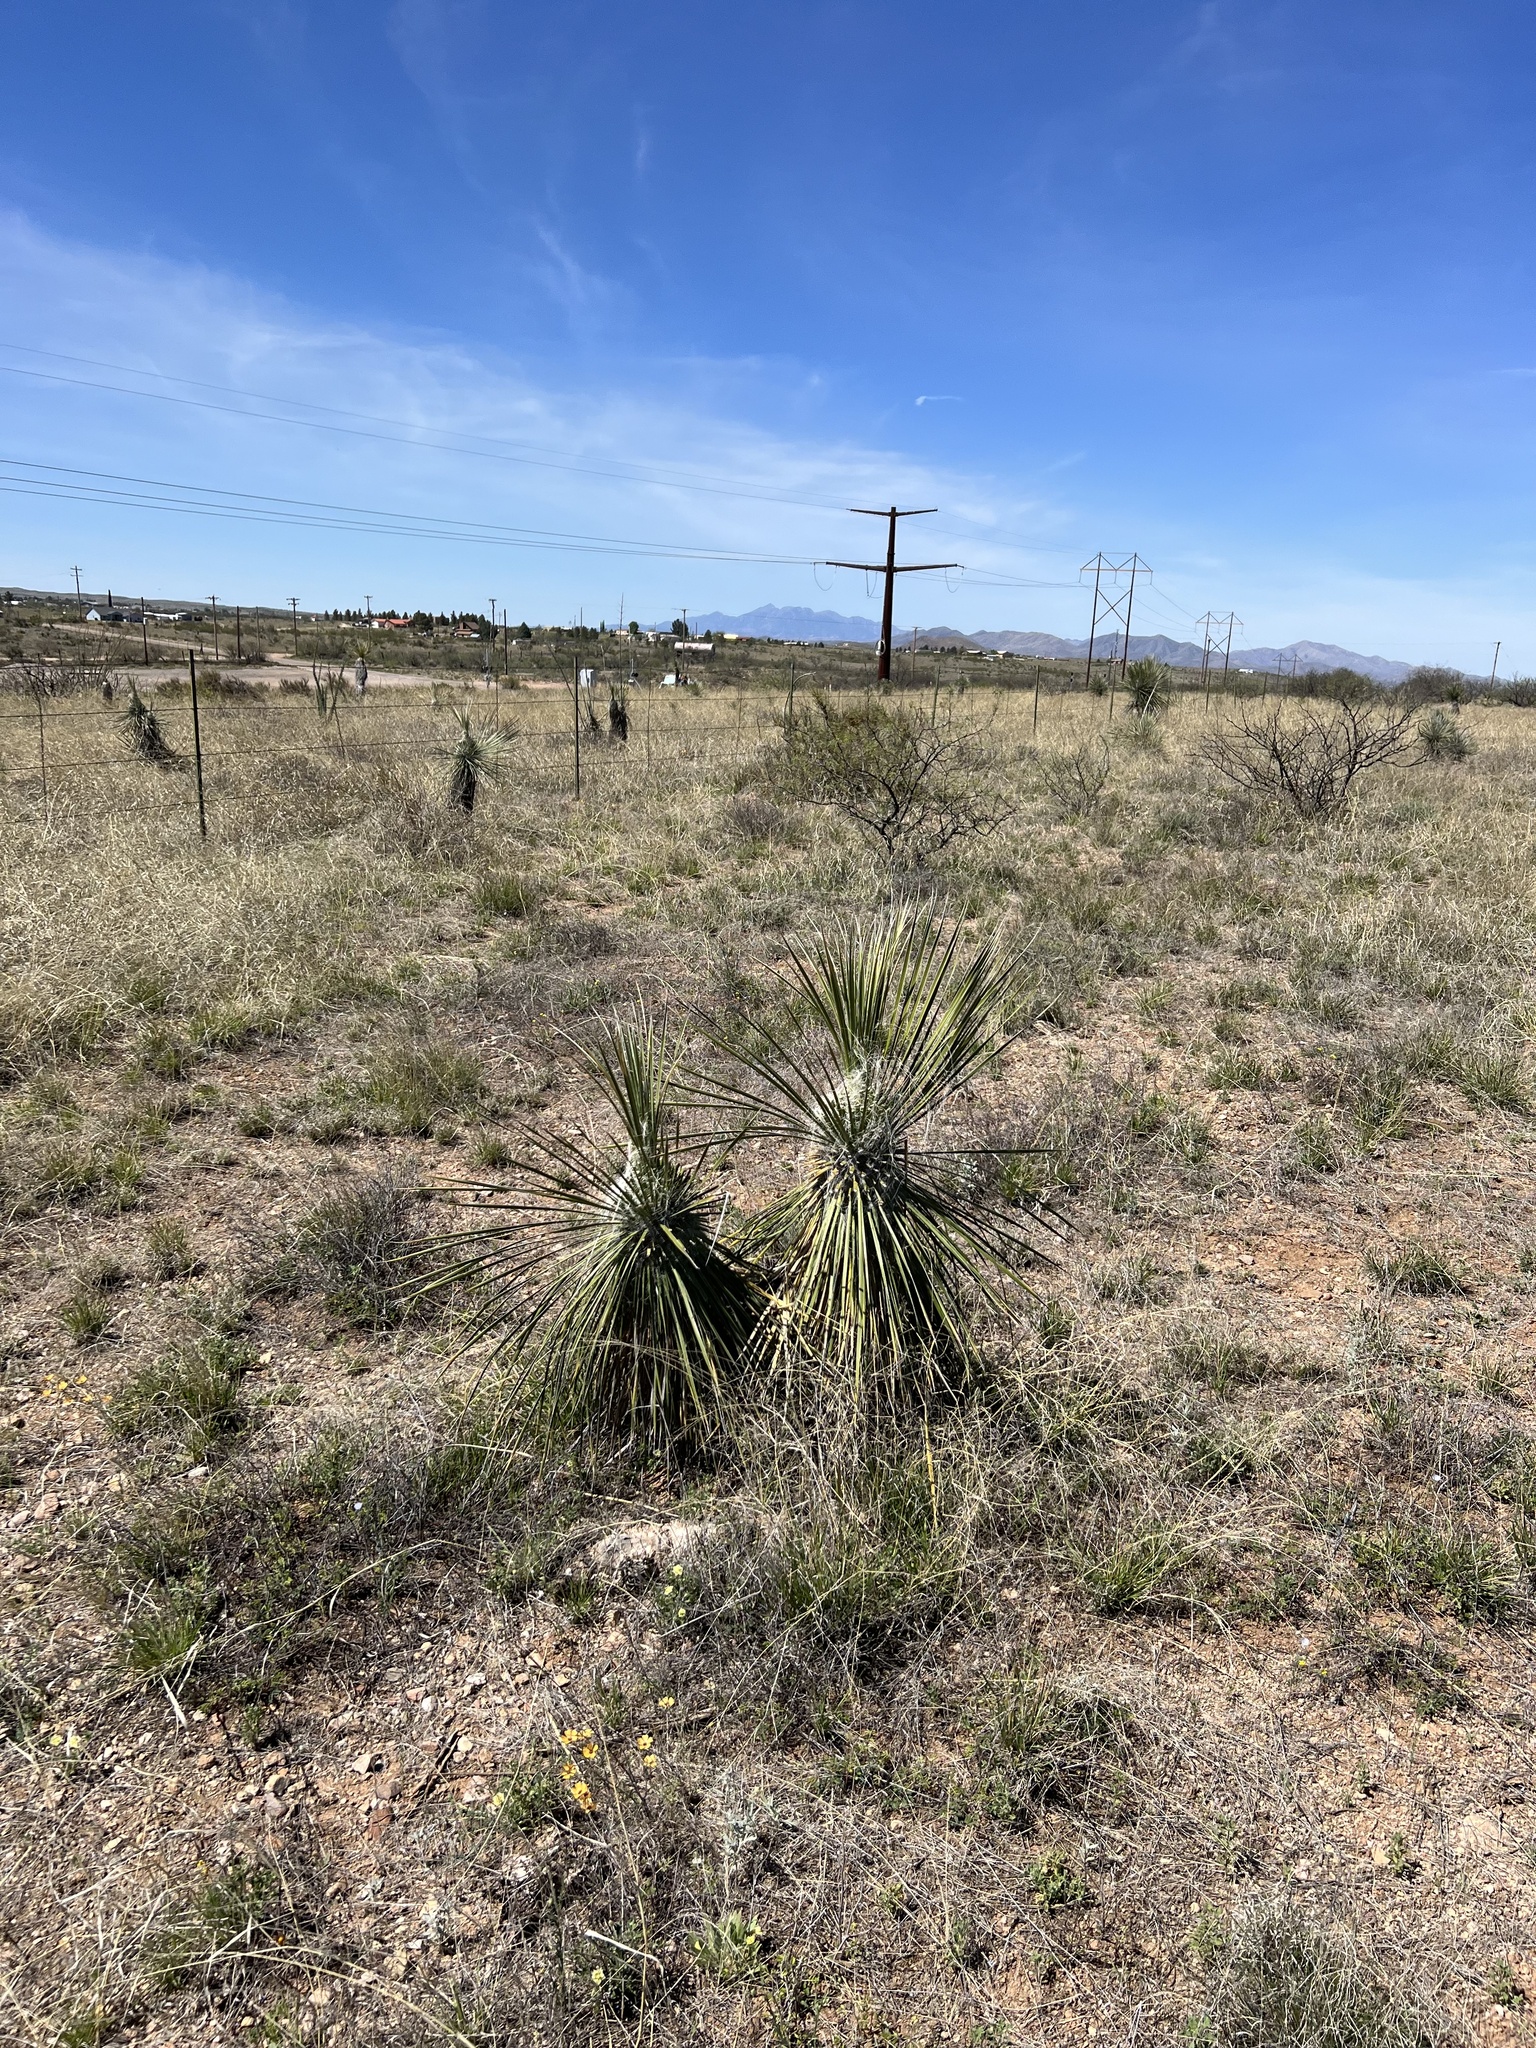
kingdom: Plantae
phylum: Tracheophyta
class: Liliopsida
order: Asparagales
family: Asparagaceae
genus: Yucca
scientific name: Yucca elata
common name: Palmella
